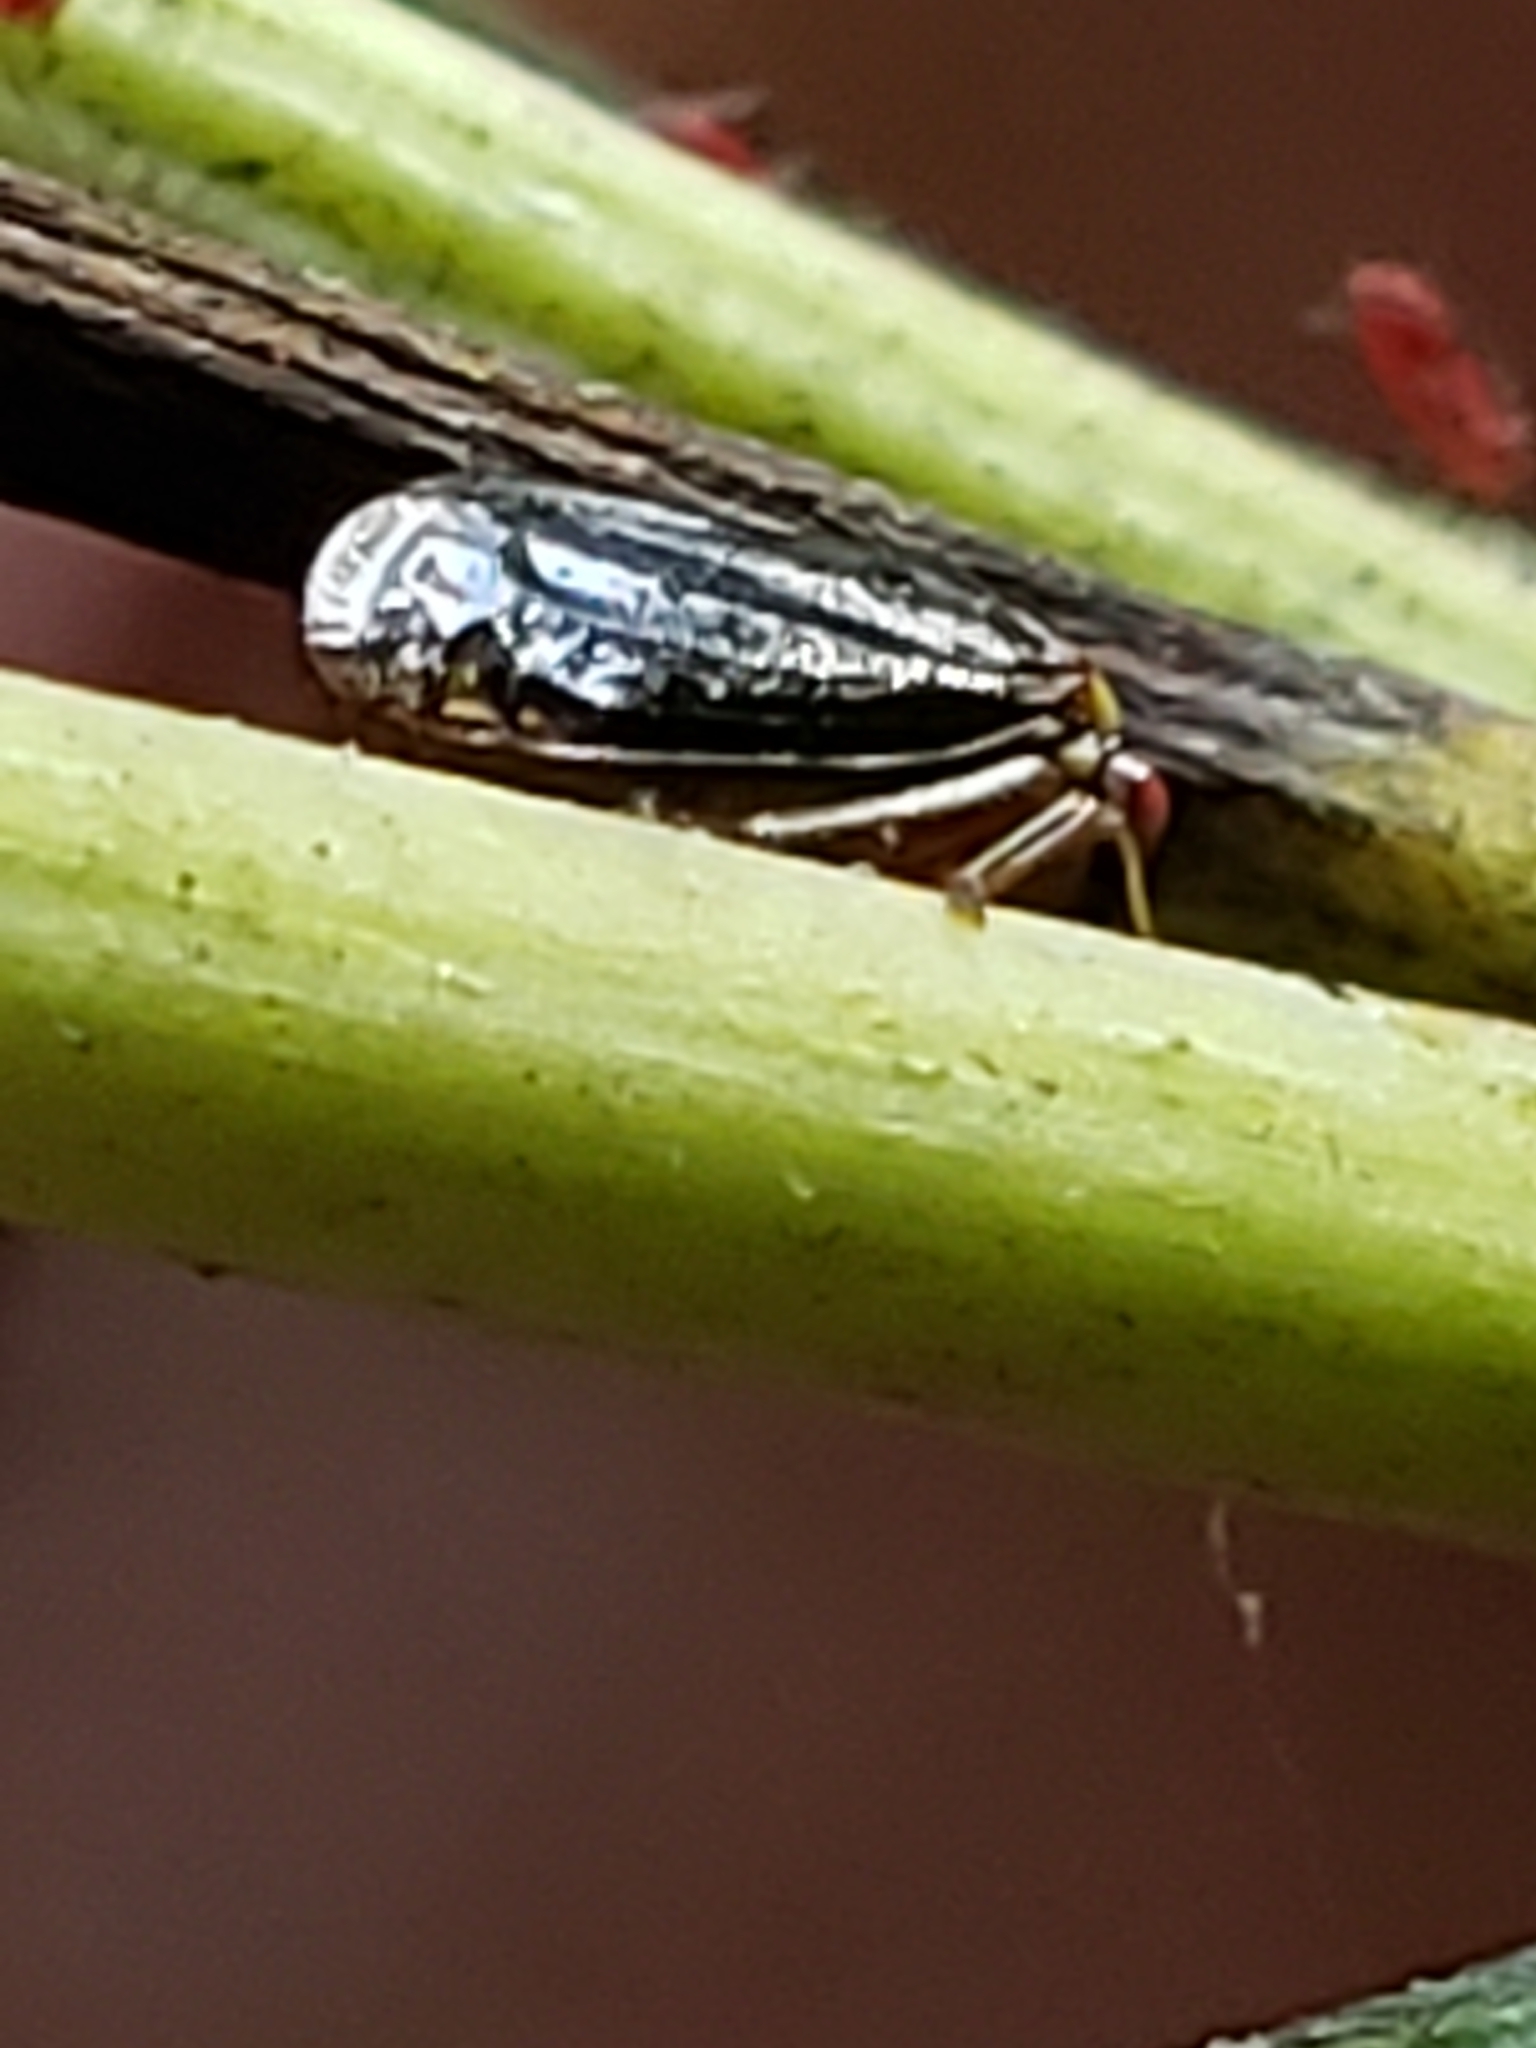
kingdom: Animalia
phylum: Arthropoda
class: Insecta
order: Hemiptera
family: Membracidae
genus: Acutalis
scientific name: Acutalis tartarea
